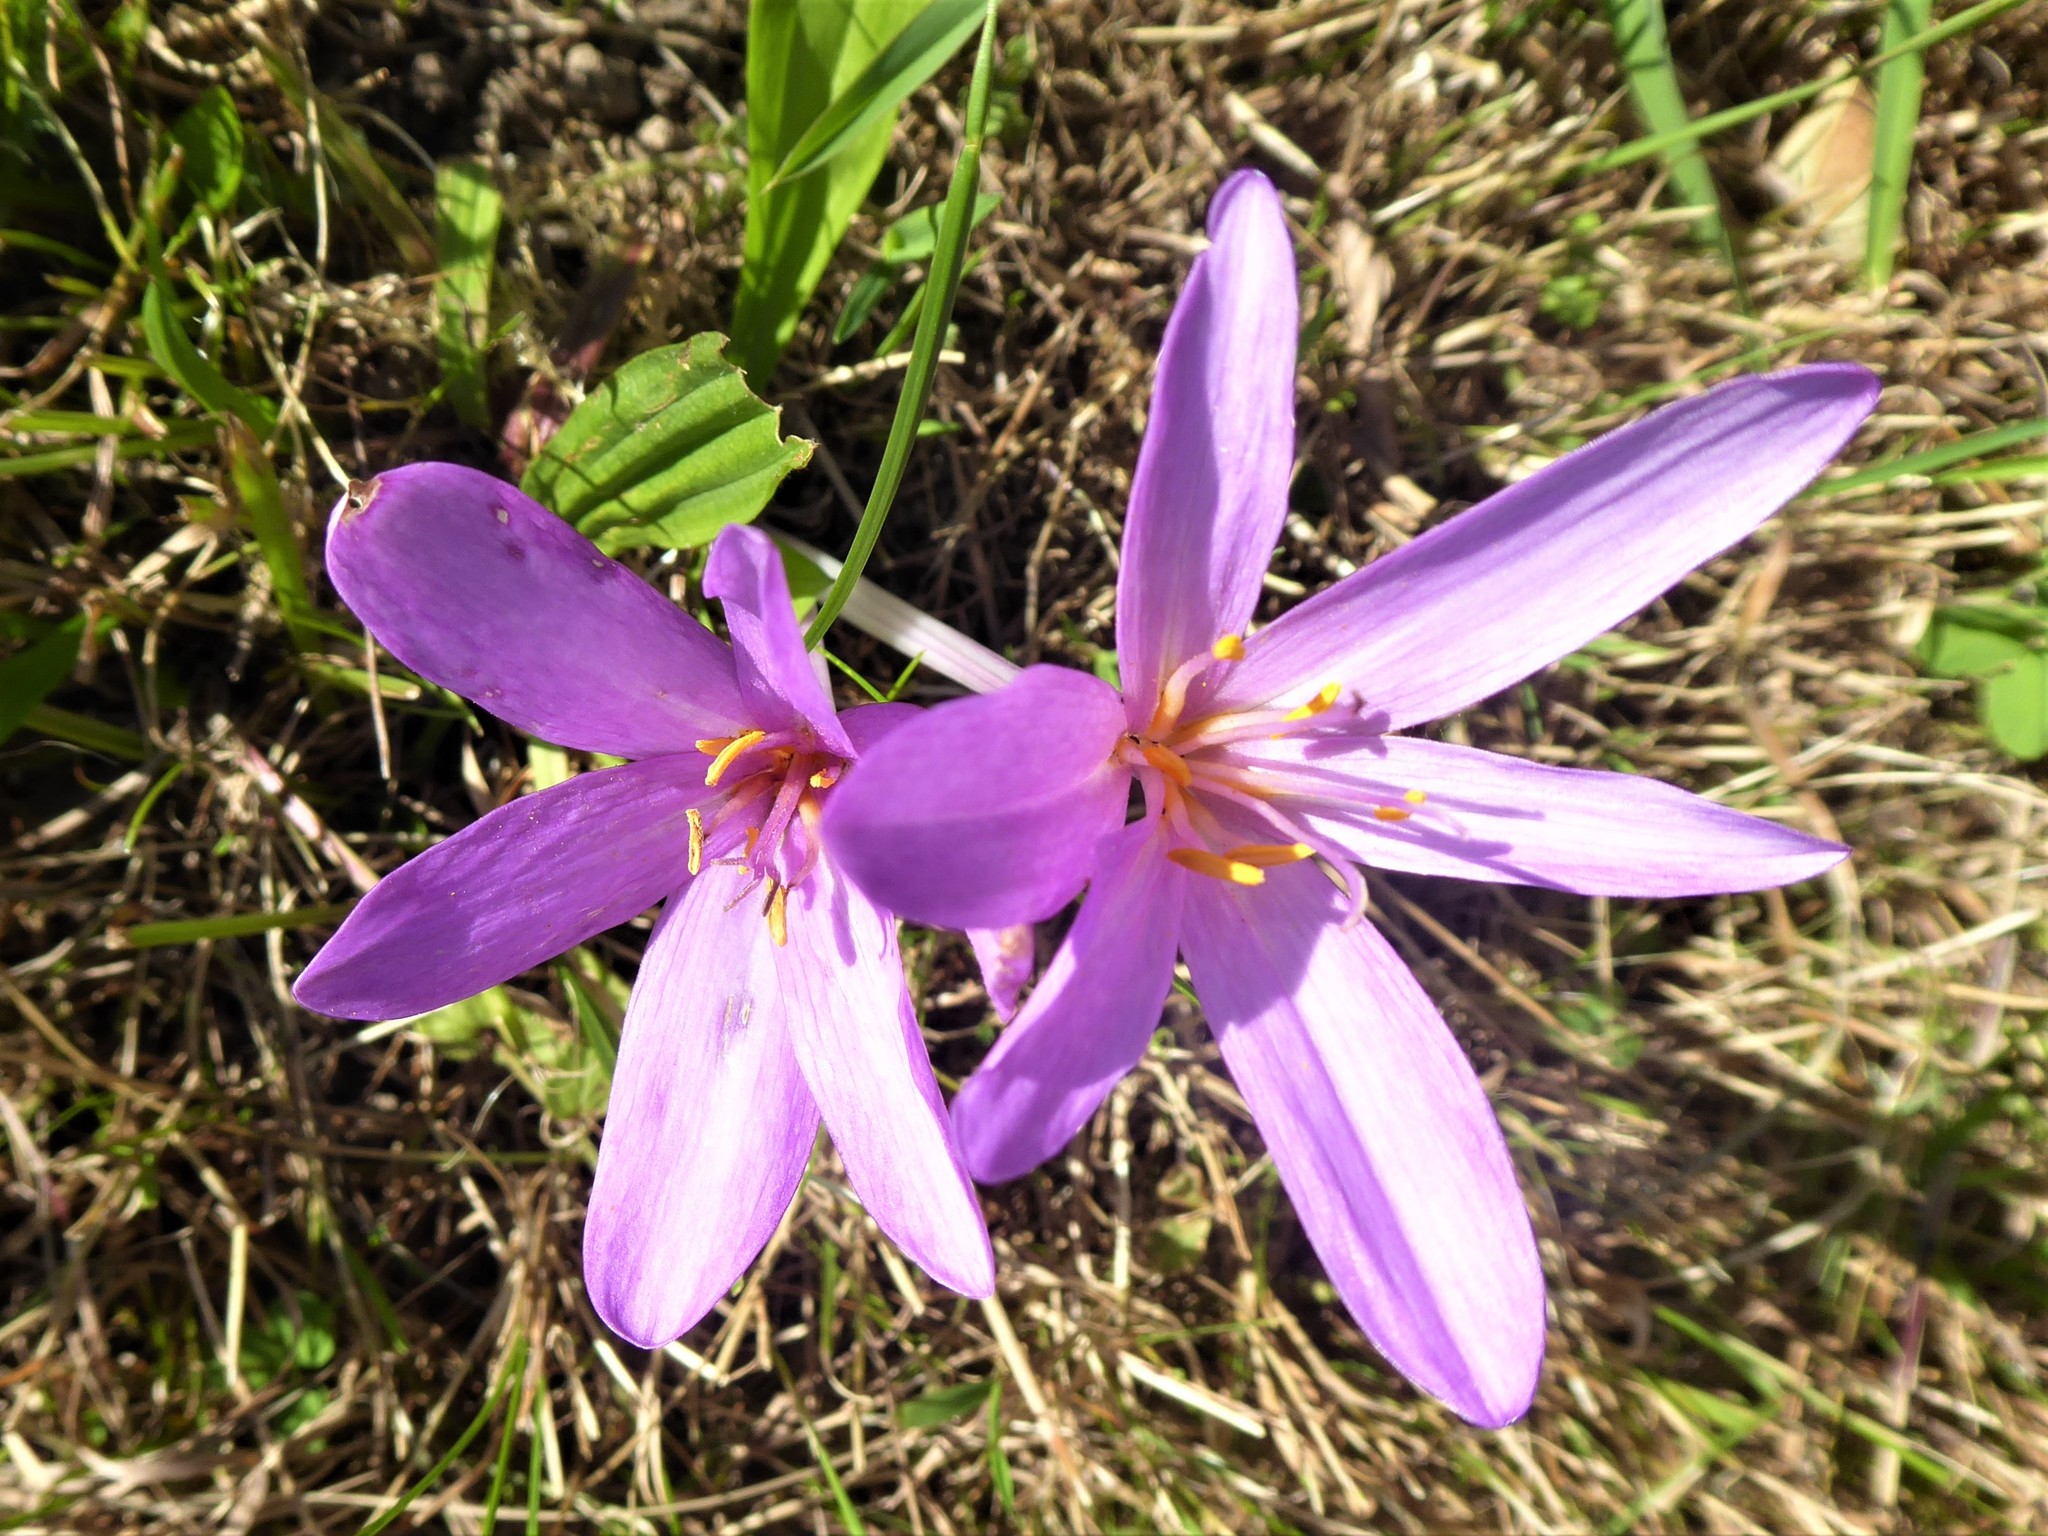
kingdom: Plantae
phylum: Tracheophyta
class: Liliopsida
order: Liliales
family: Colchicaceae
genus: Colchicum
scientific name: Colchicum autumnale
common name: Autumn crocus
